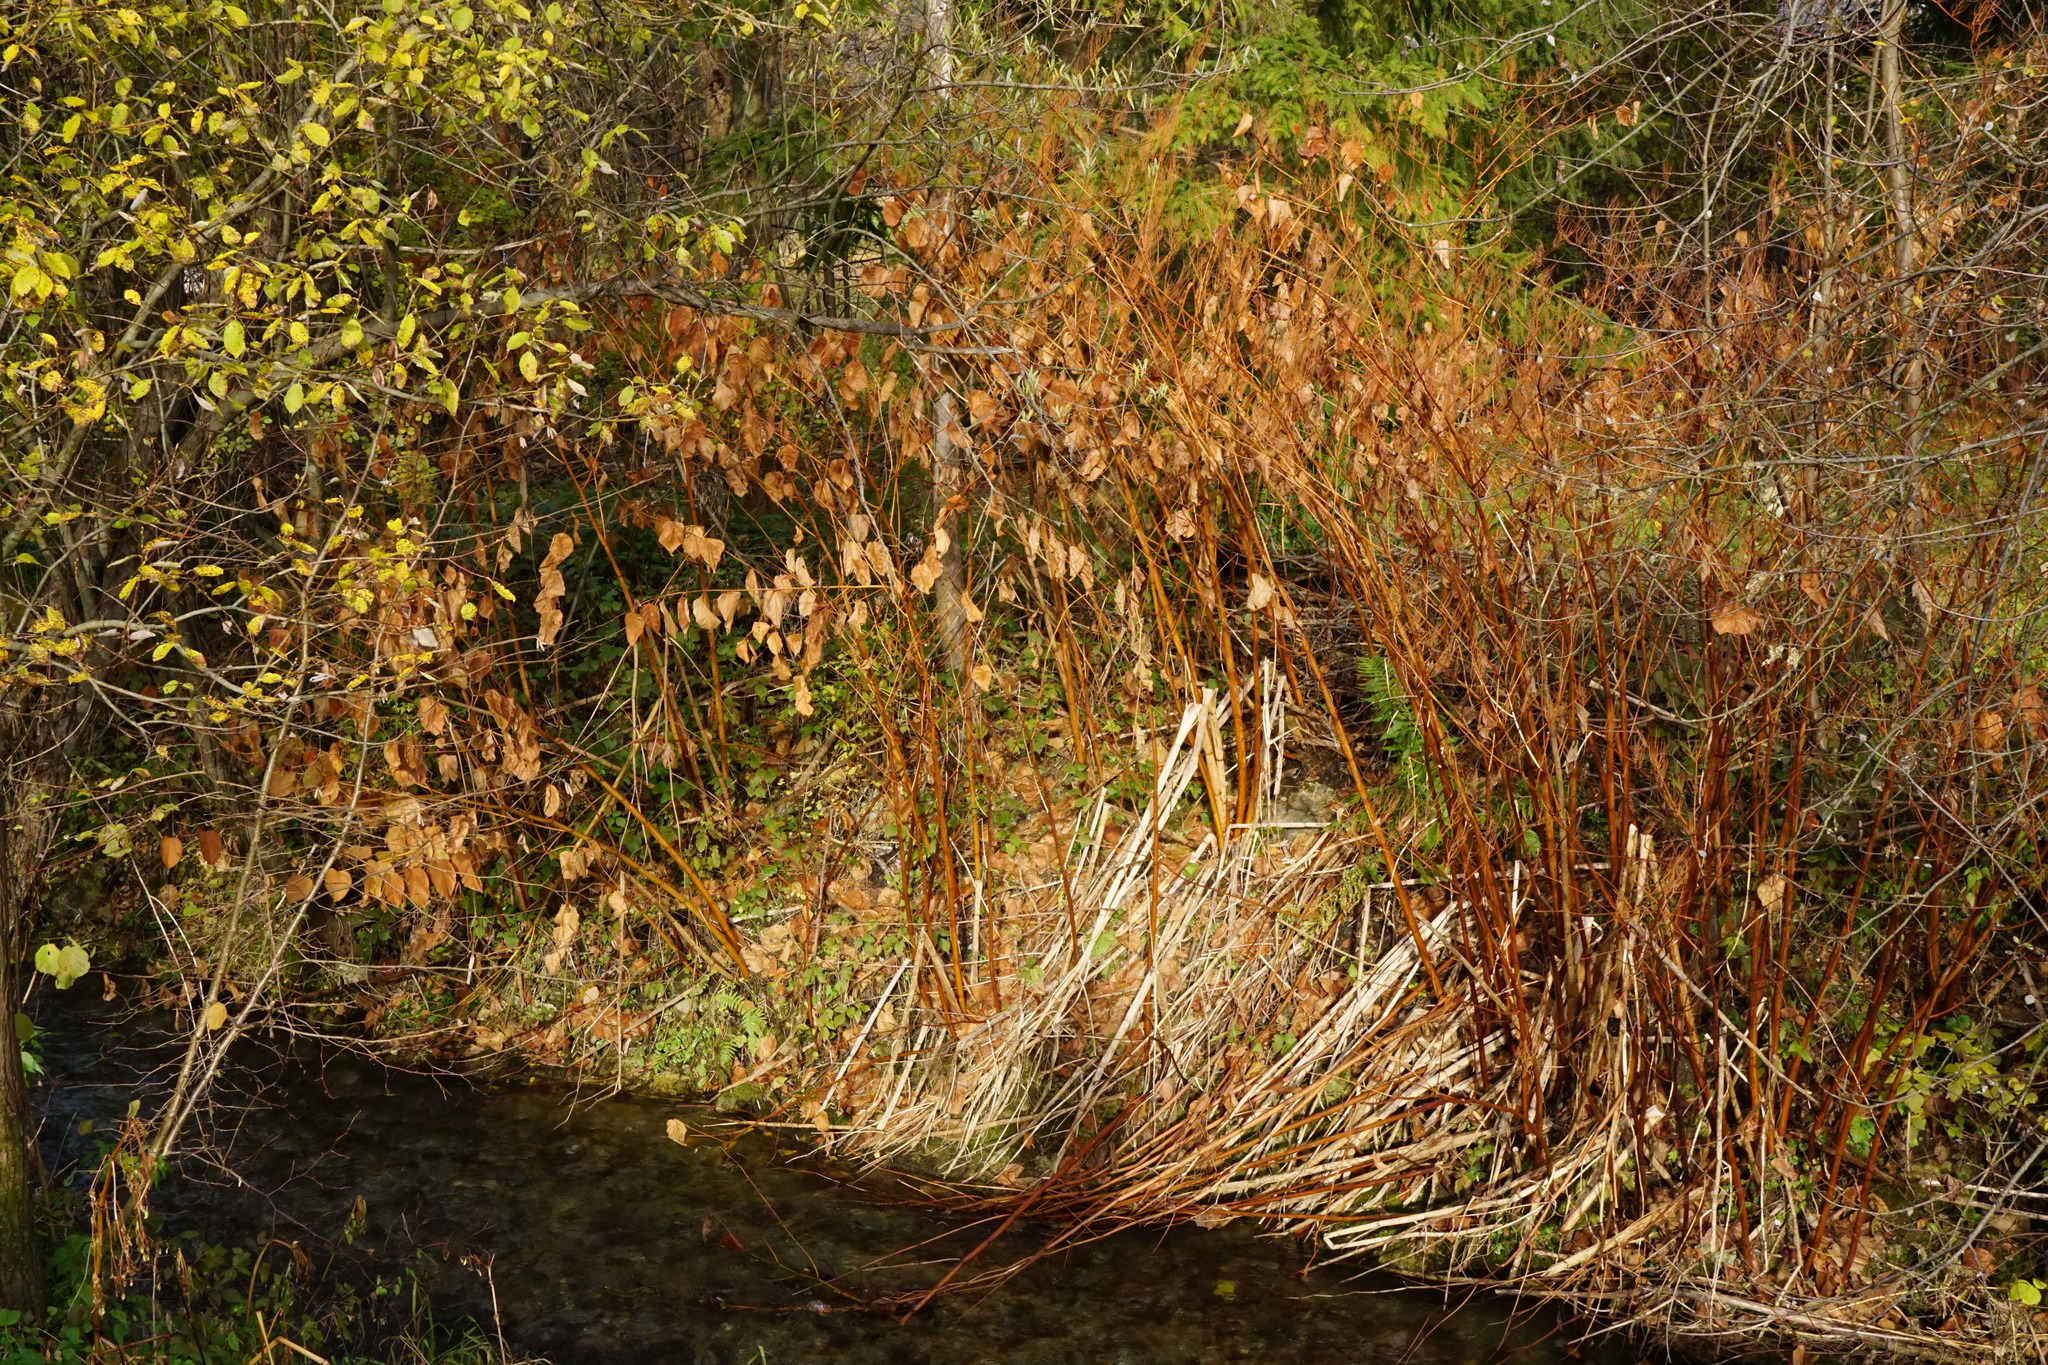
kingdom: Plantae
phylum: Tracheophyta
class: Magnoliopsida
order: Caryophyllales
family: Polygonaceae
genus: Reynoutria
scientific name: Reynoutria bohemica
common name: Bohemian knotweed
